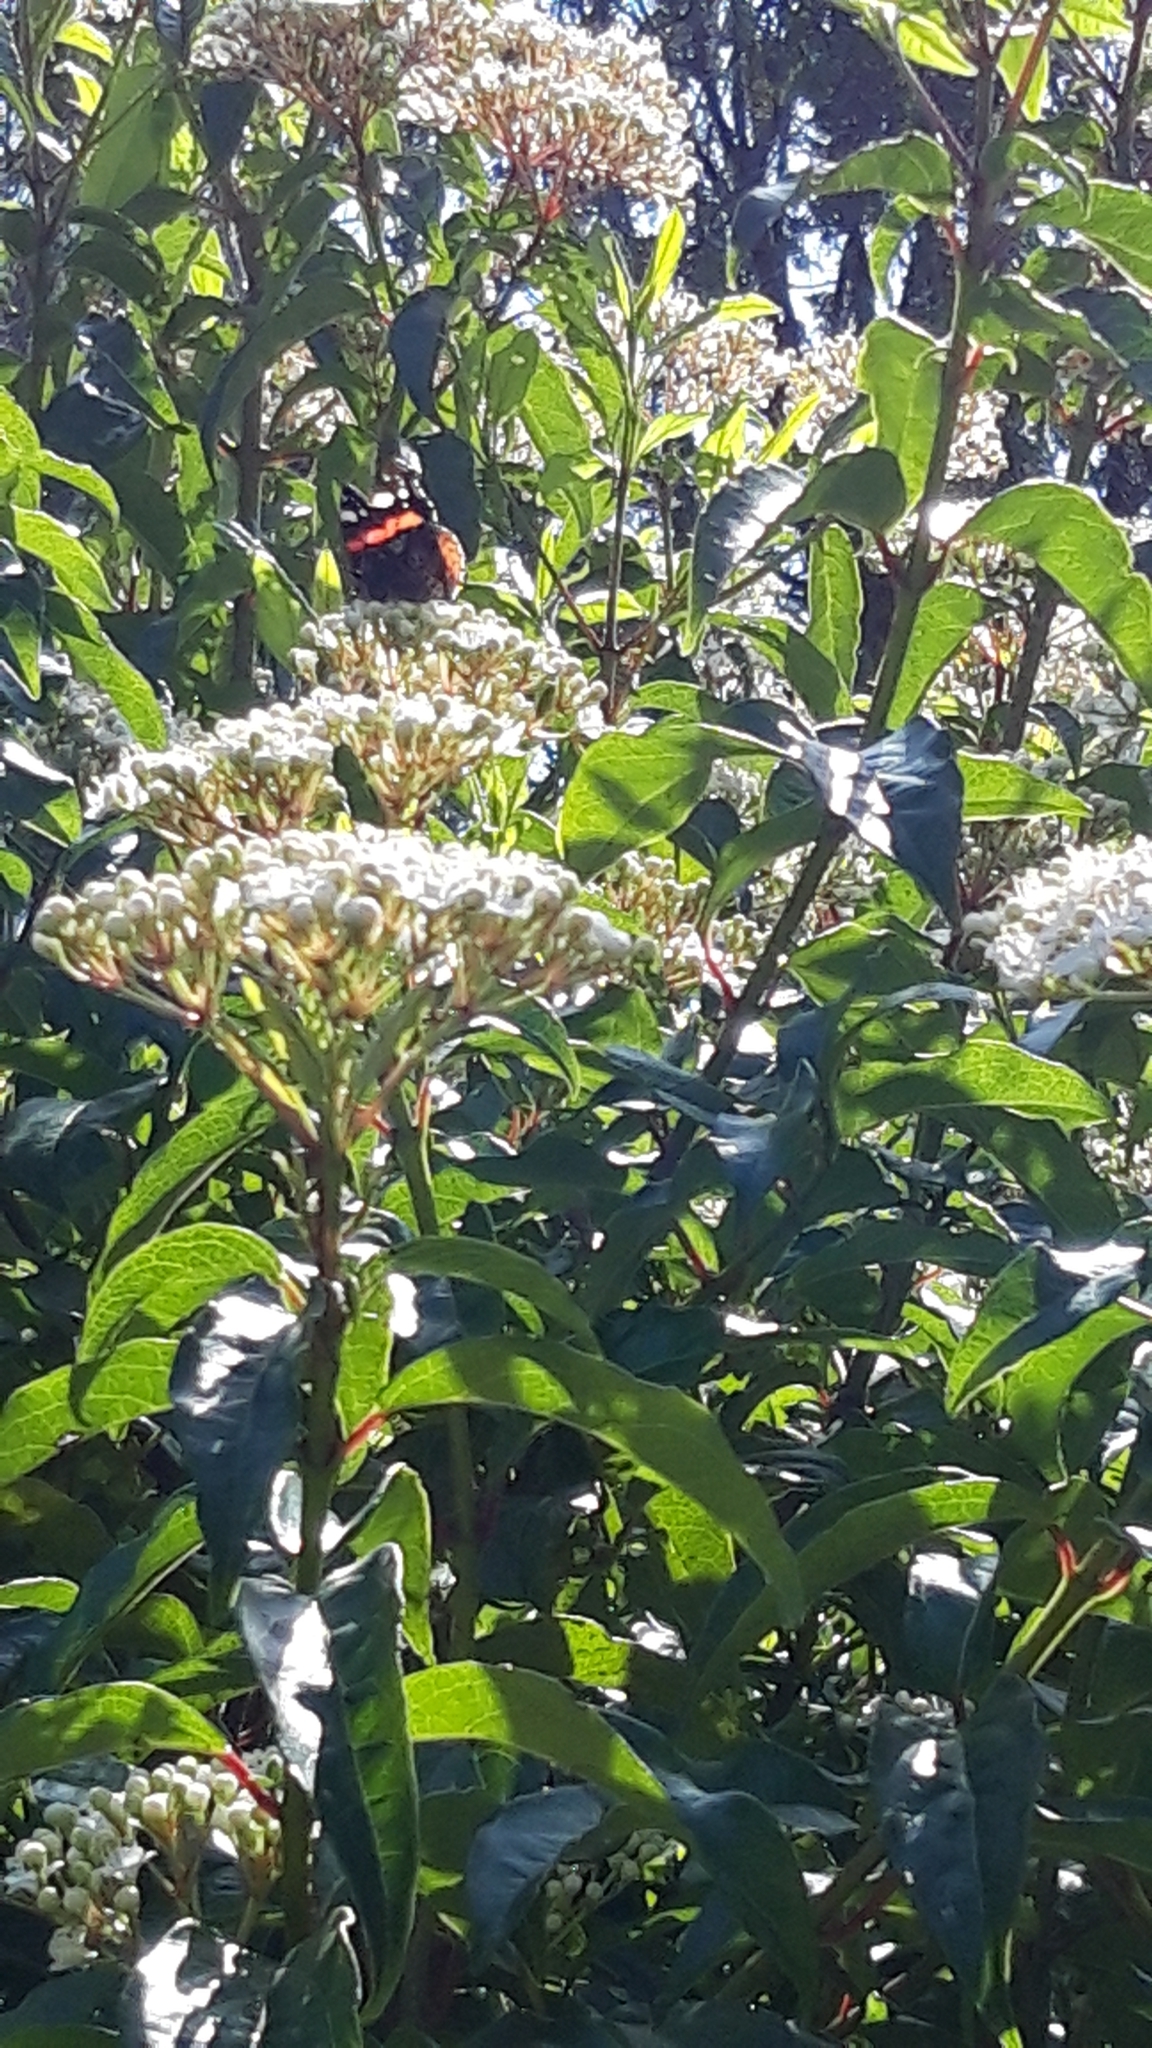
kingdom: Animalia
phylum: Arthropoda
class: Insecta
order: Lepidoptera
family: Nymphalidae
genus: Vanessa
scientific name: Vanessa atalanta
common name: Red admiral
